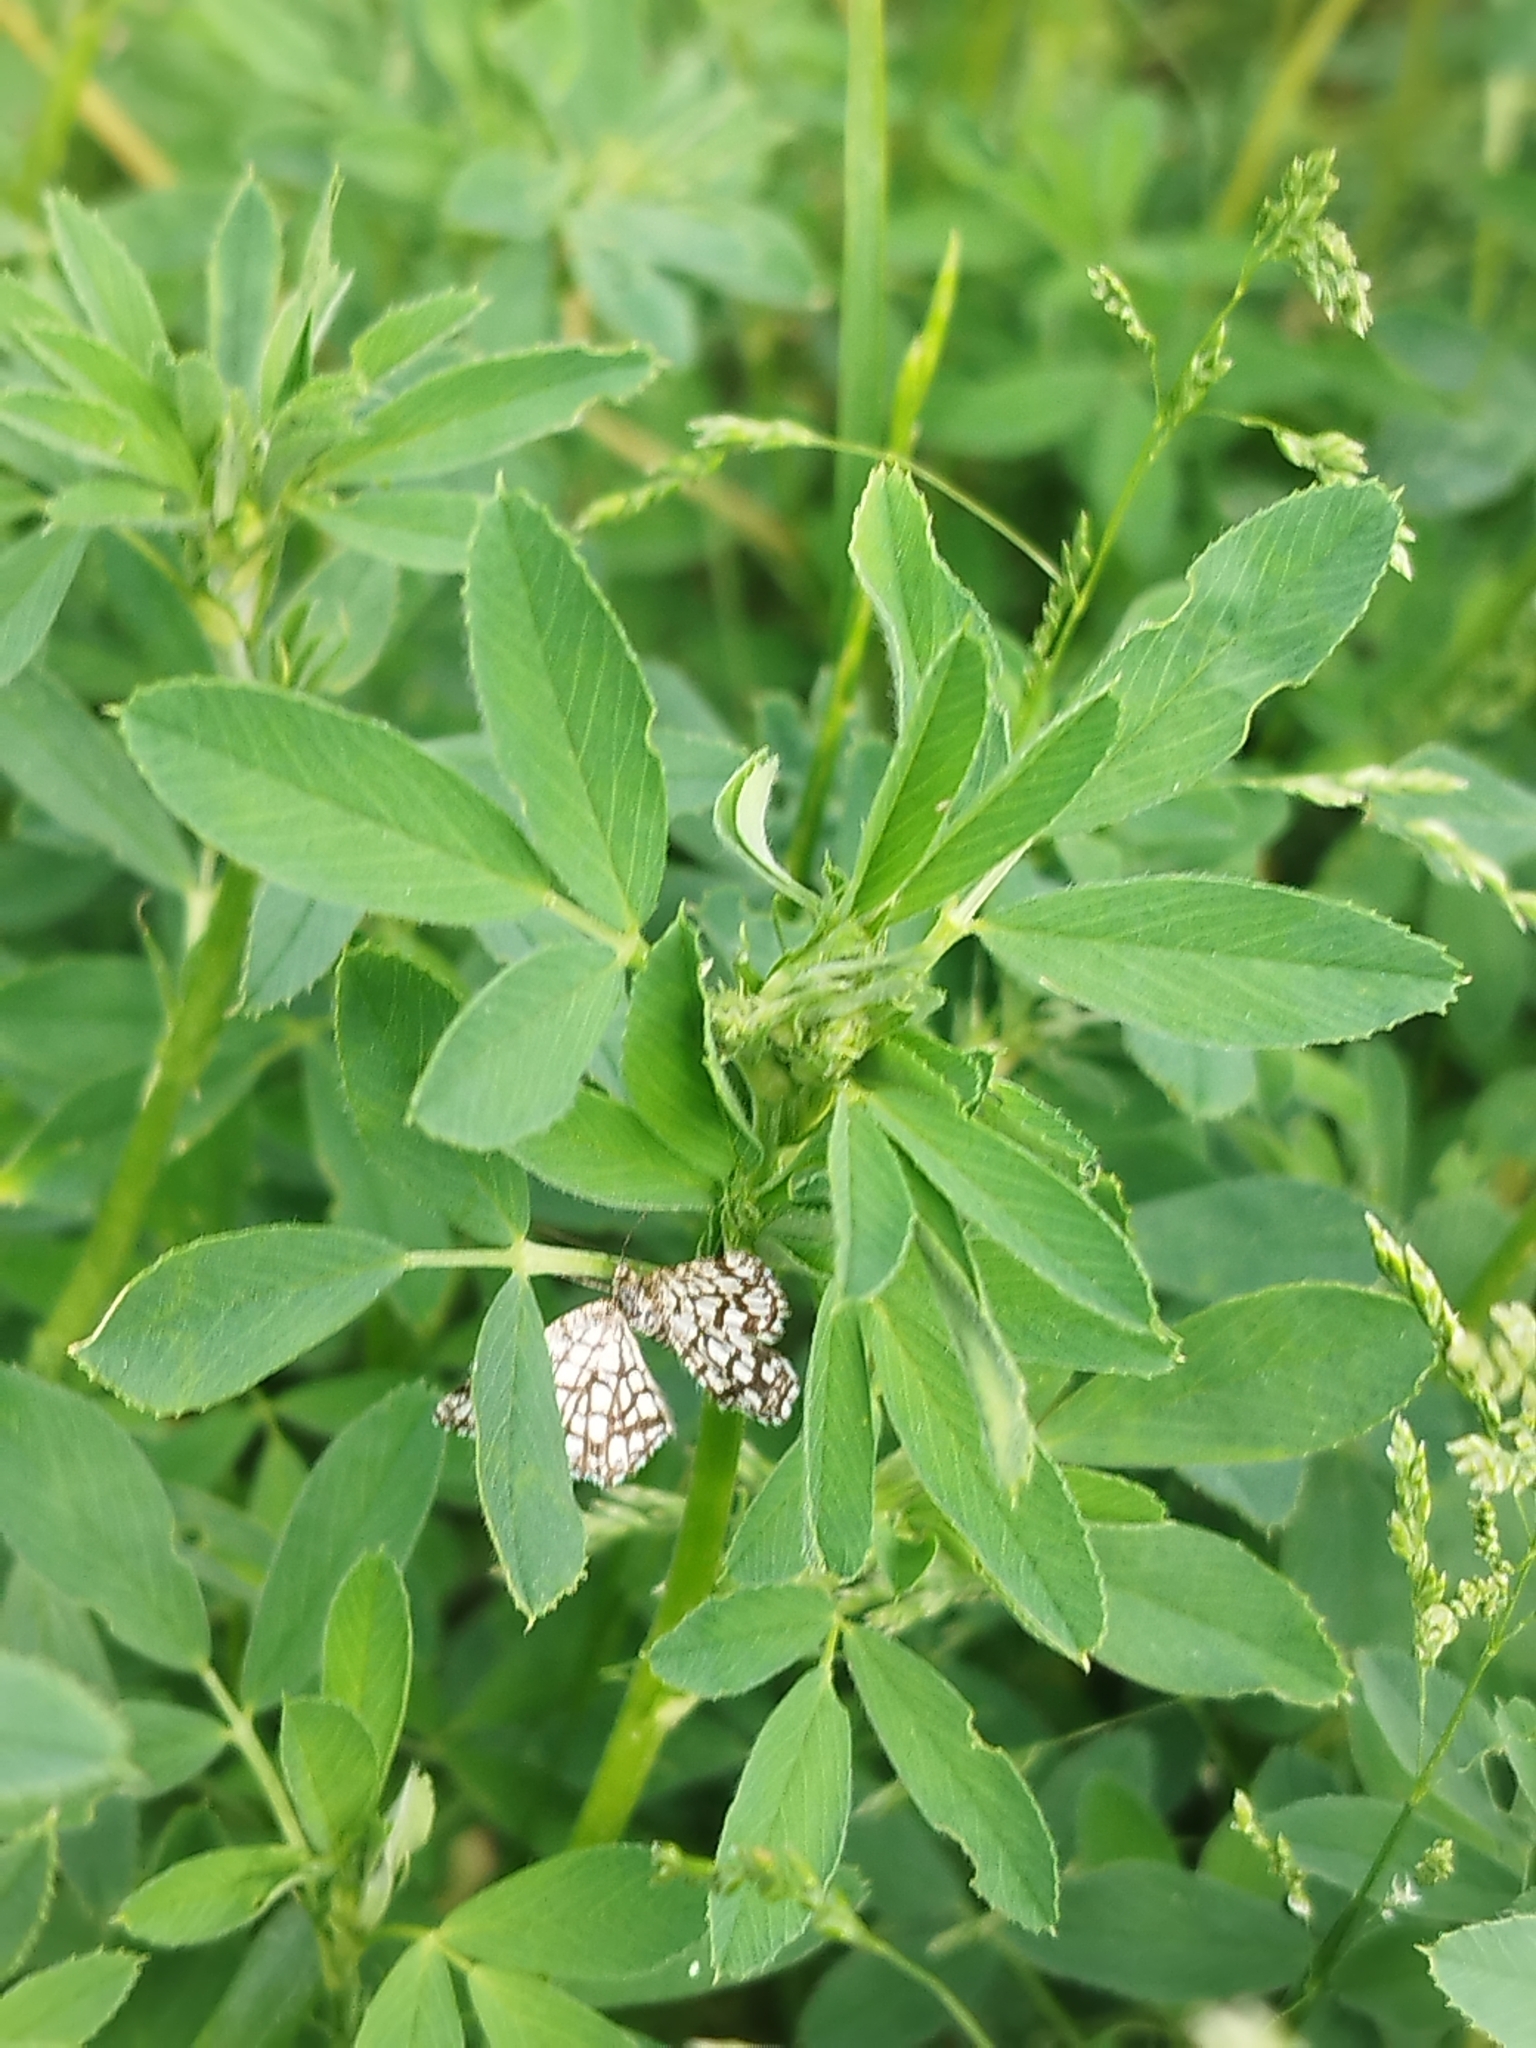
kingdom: Animalia
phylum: Arthropoda
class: Insecta
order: Lepidoptera
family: Geometridae
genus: Chiasmia
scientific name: Chiasmia clathrata
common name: Latticed heath
